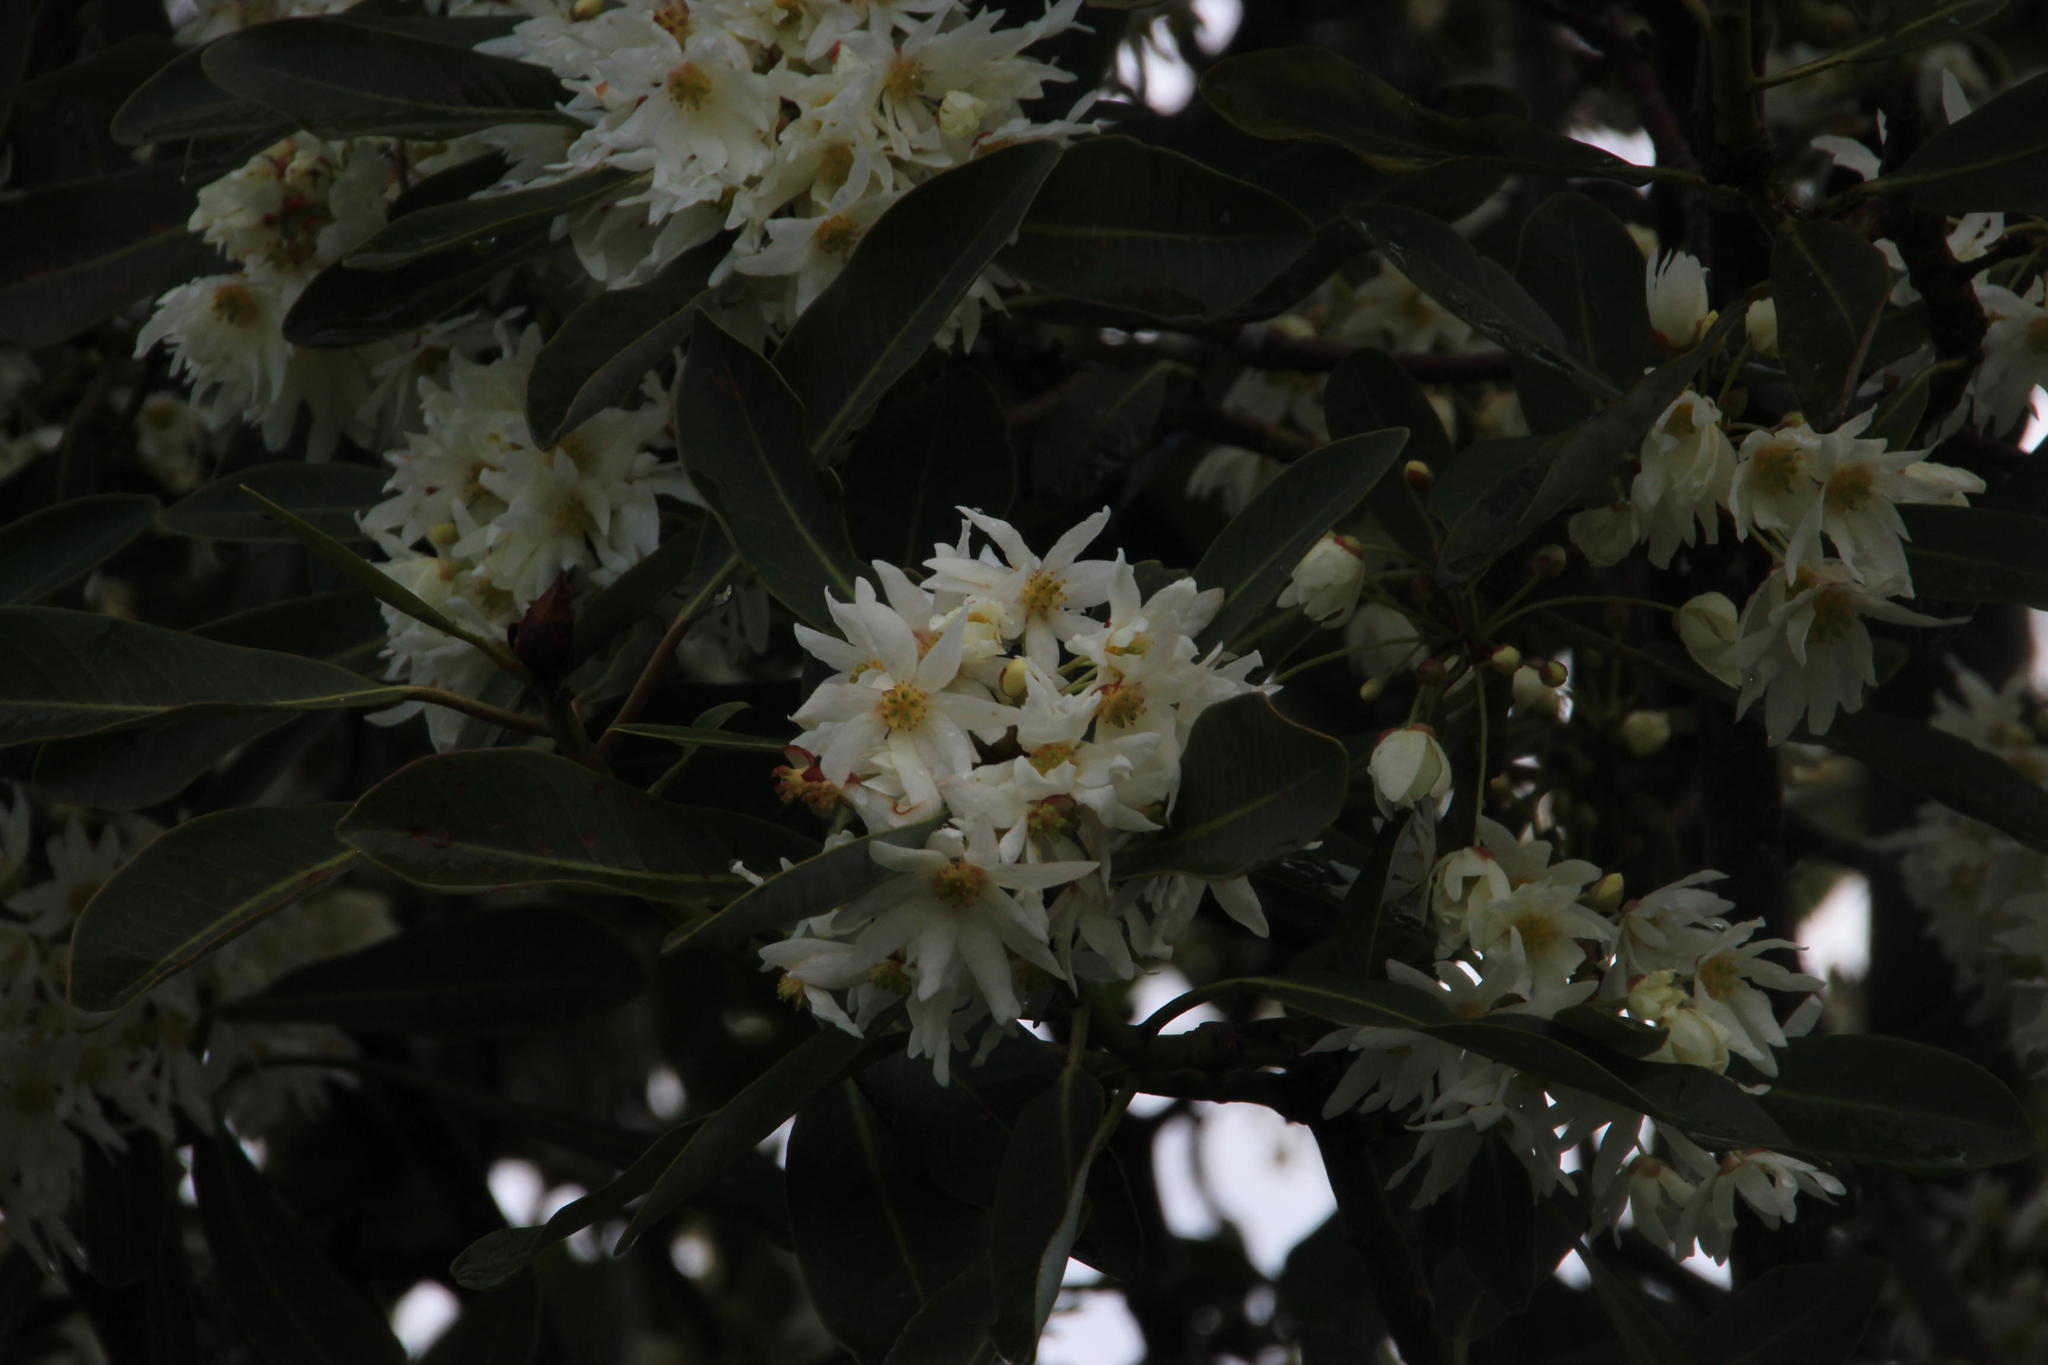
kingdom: Plantae
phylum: Tracheophyta
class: Magnoliopsida
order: Canellales
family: Winteraceae
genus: Drimys
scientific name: Drimys winteri
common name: Winter's-bark
